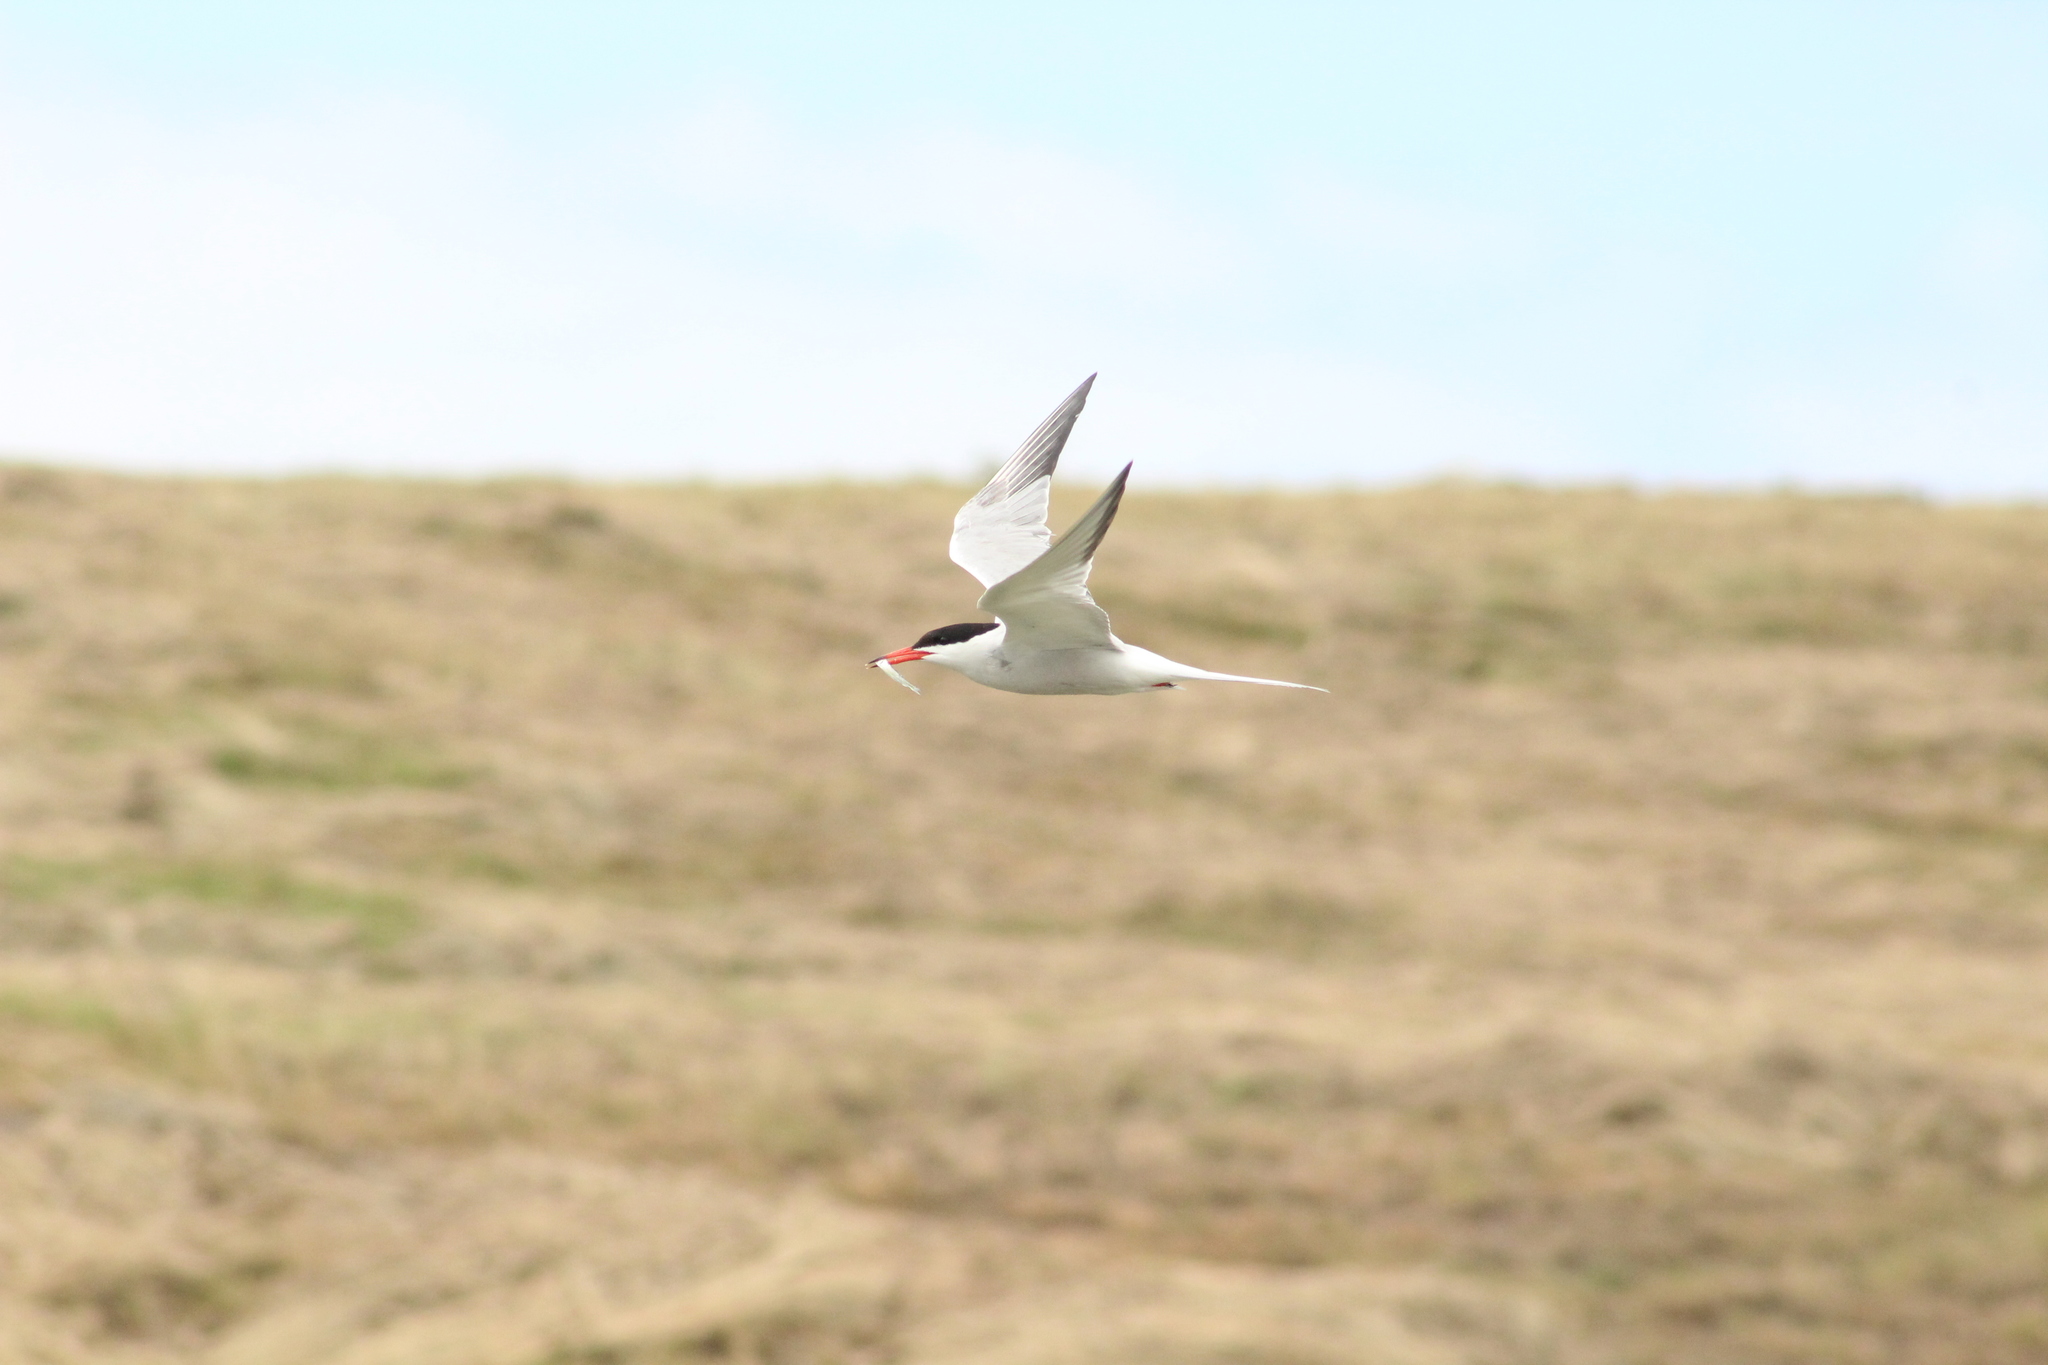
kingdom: Animalia
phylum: Chordata
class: Aves
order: Charadriiformes
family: Laridae
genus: Sterna
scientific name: Sterna hirundo
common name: Common tern
